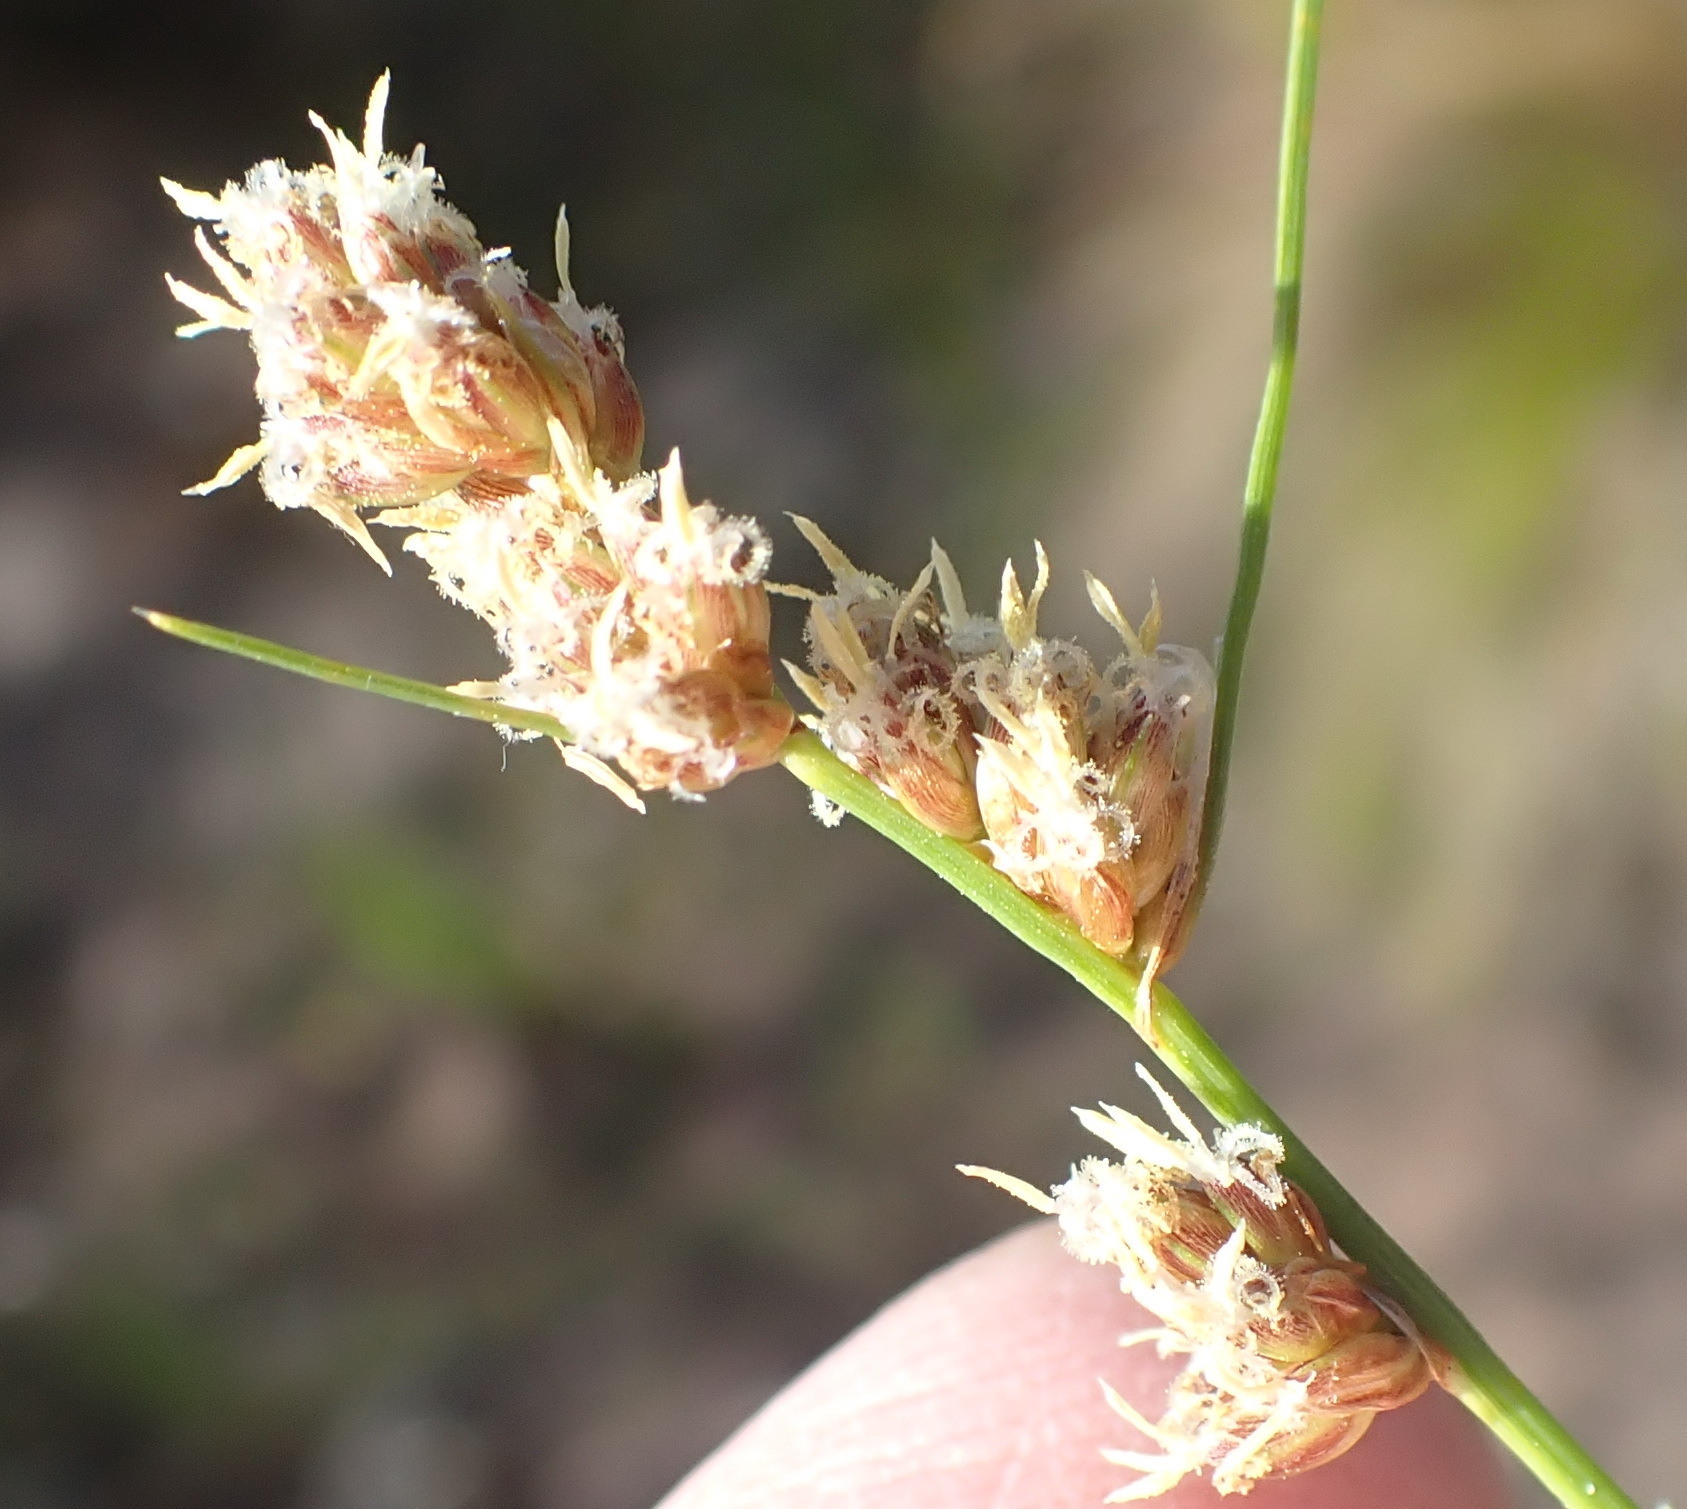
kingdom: Plantae
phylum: Tracheophyta
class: Liliopsida
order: Poales
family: Cyperaceae
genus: Ficinia
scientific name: Ficinia bulbosa
